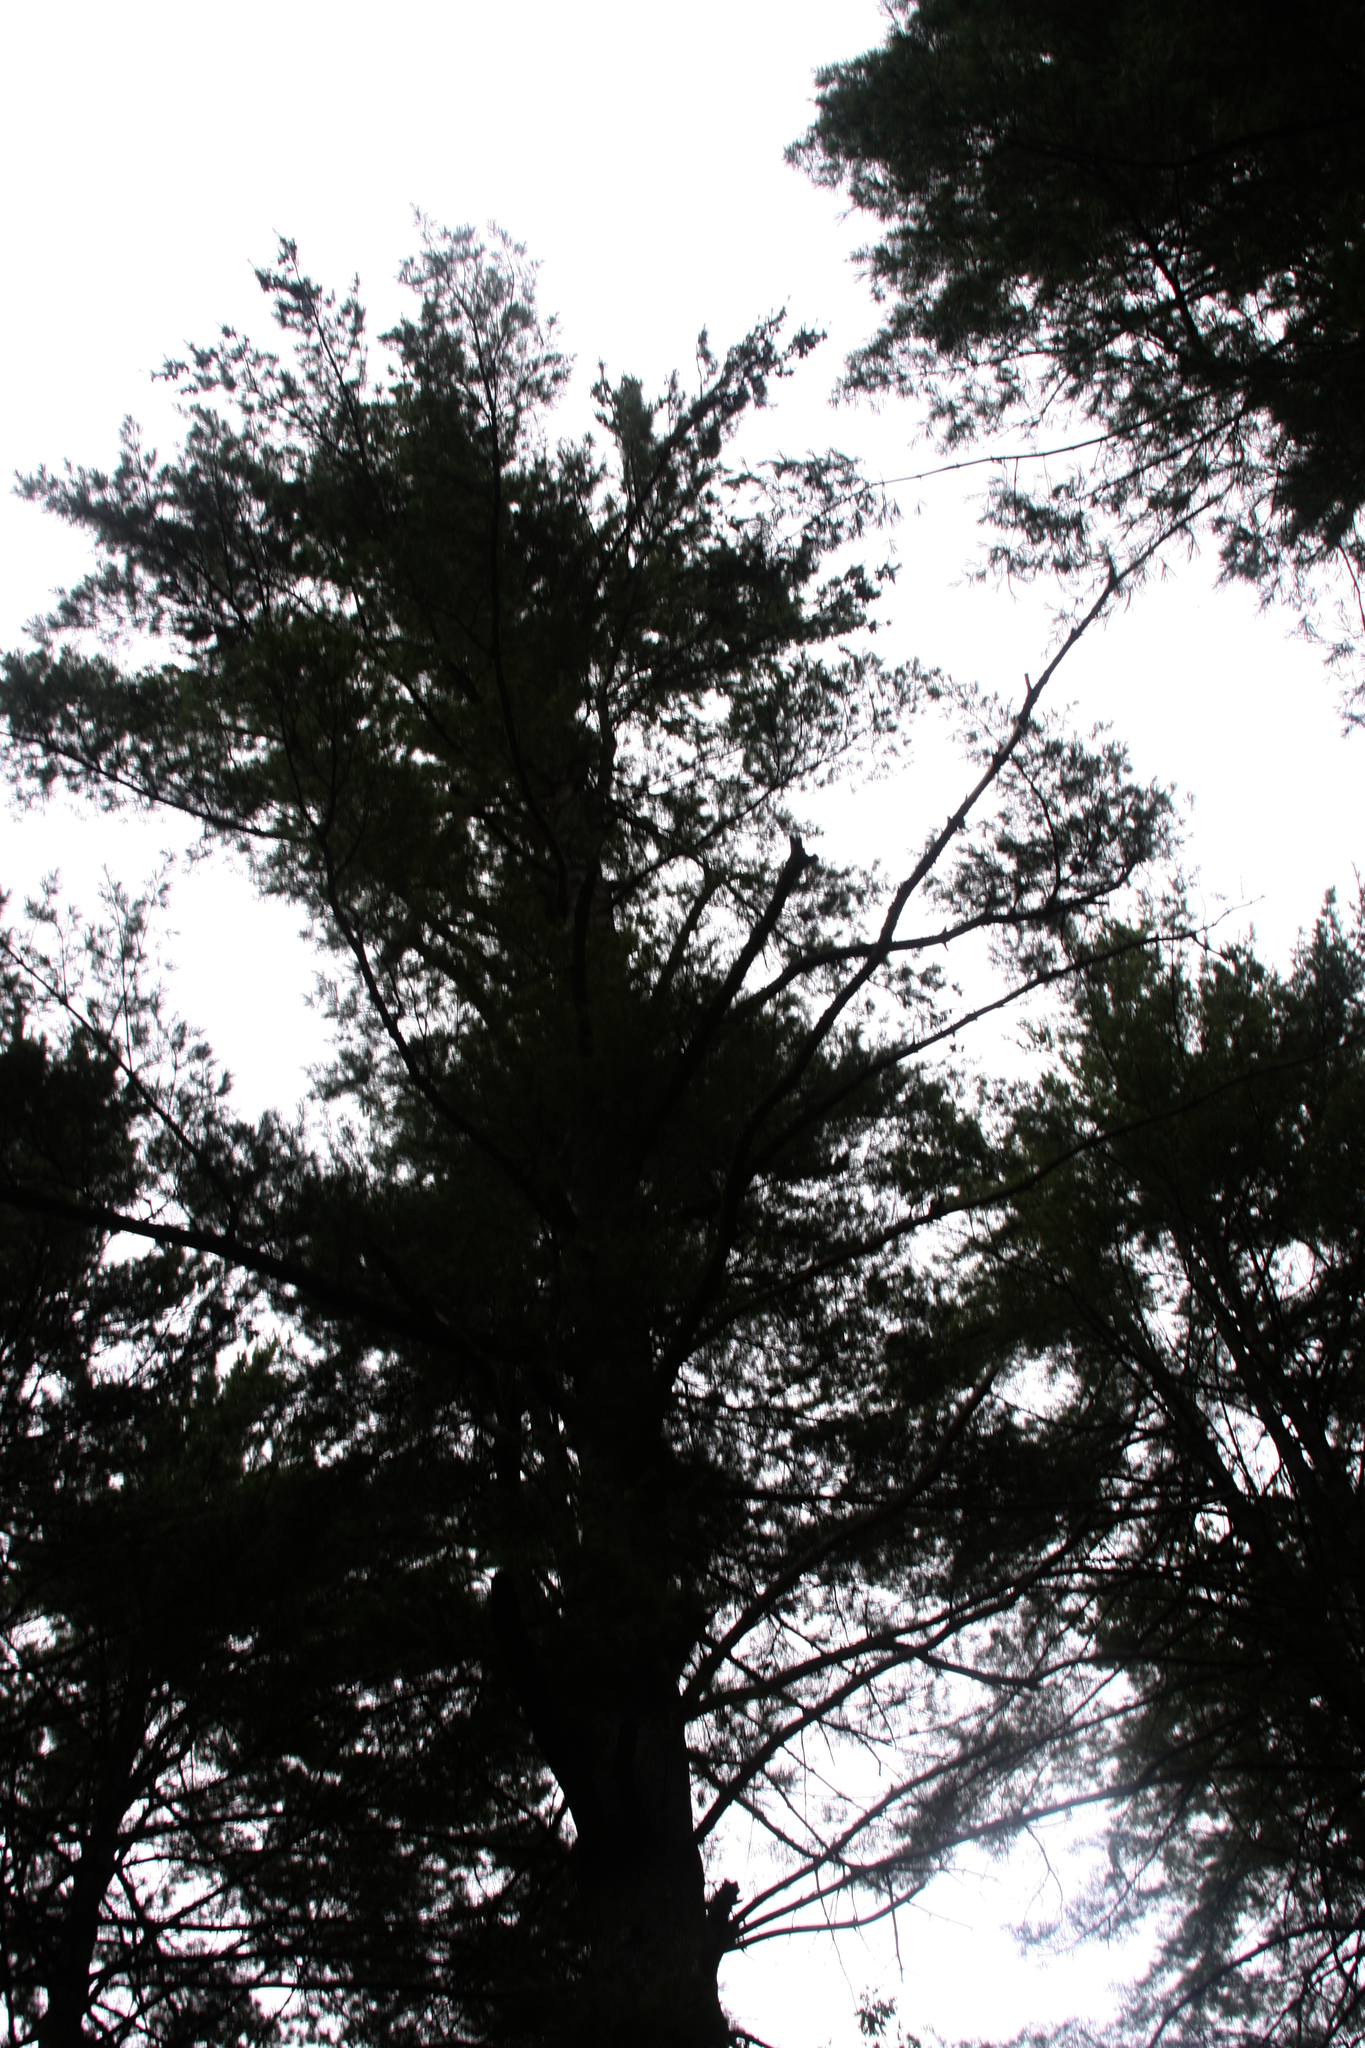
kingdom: Plantae
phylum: Tracheophyta
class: Pinopsida
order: Pinales
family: Pinaceae
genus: Pinus
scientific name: Pinus strobus
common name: Weymouth pine
